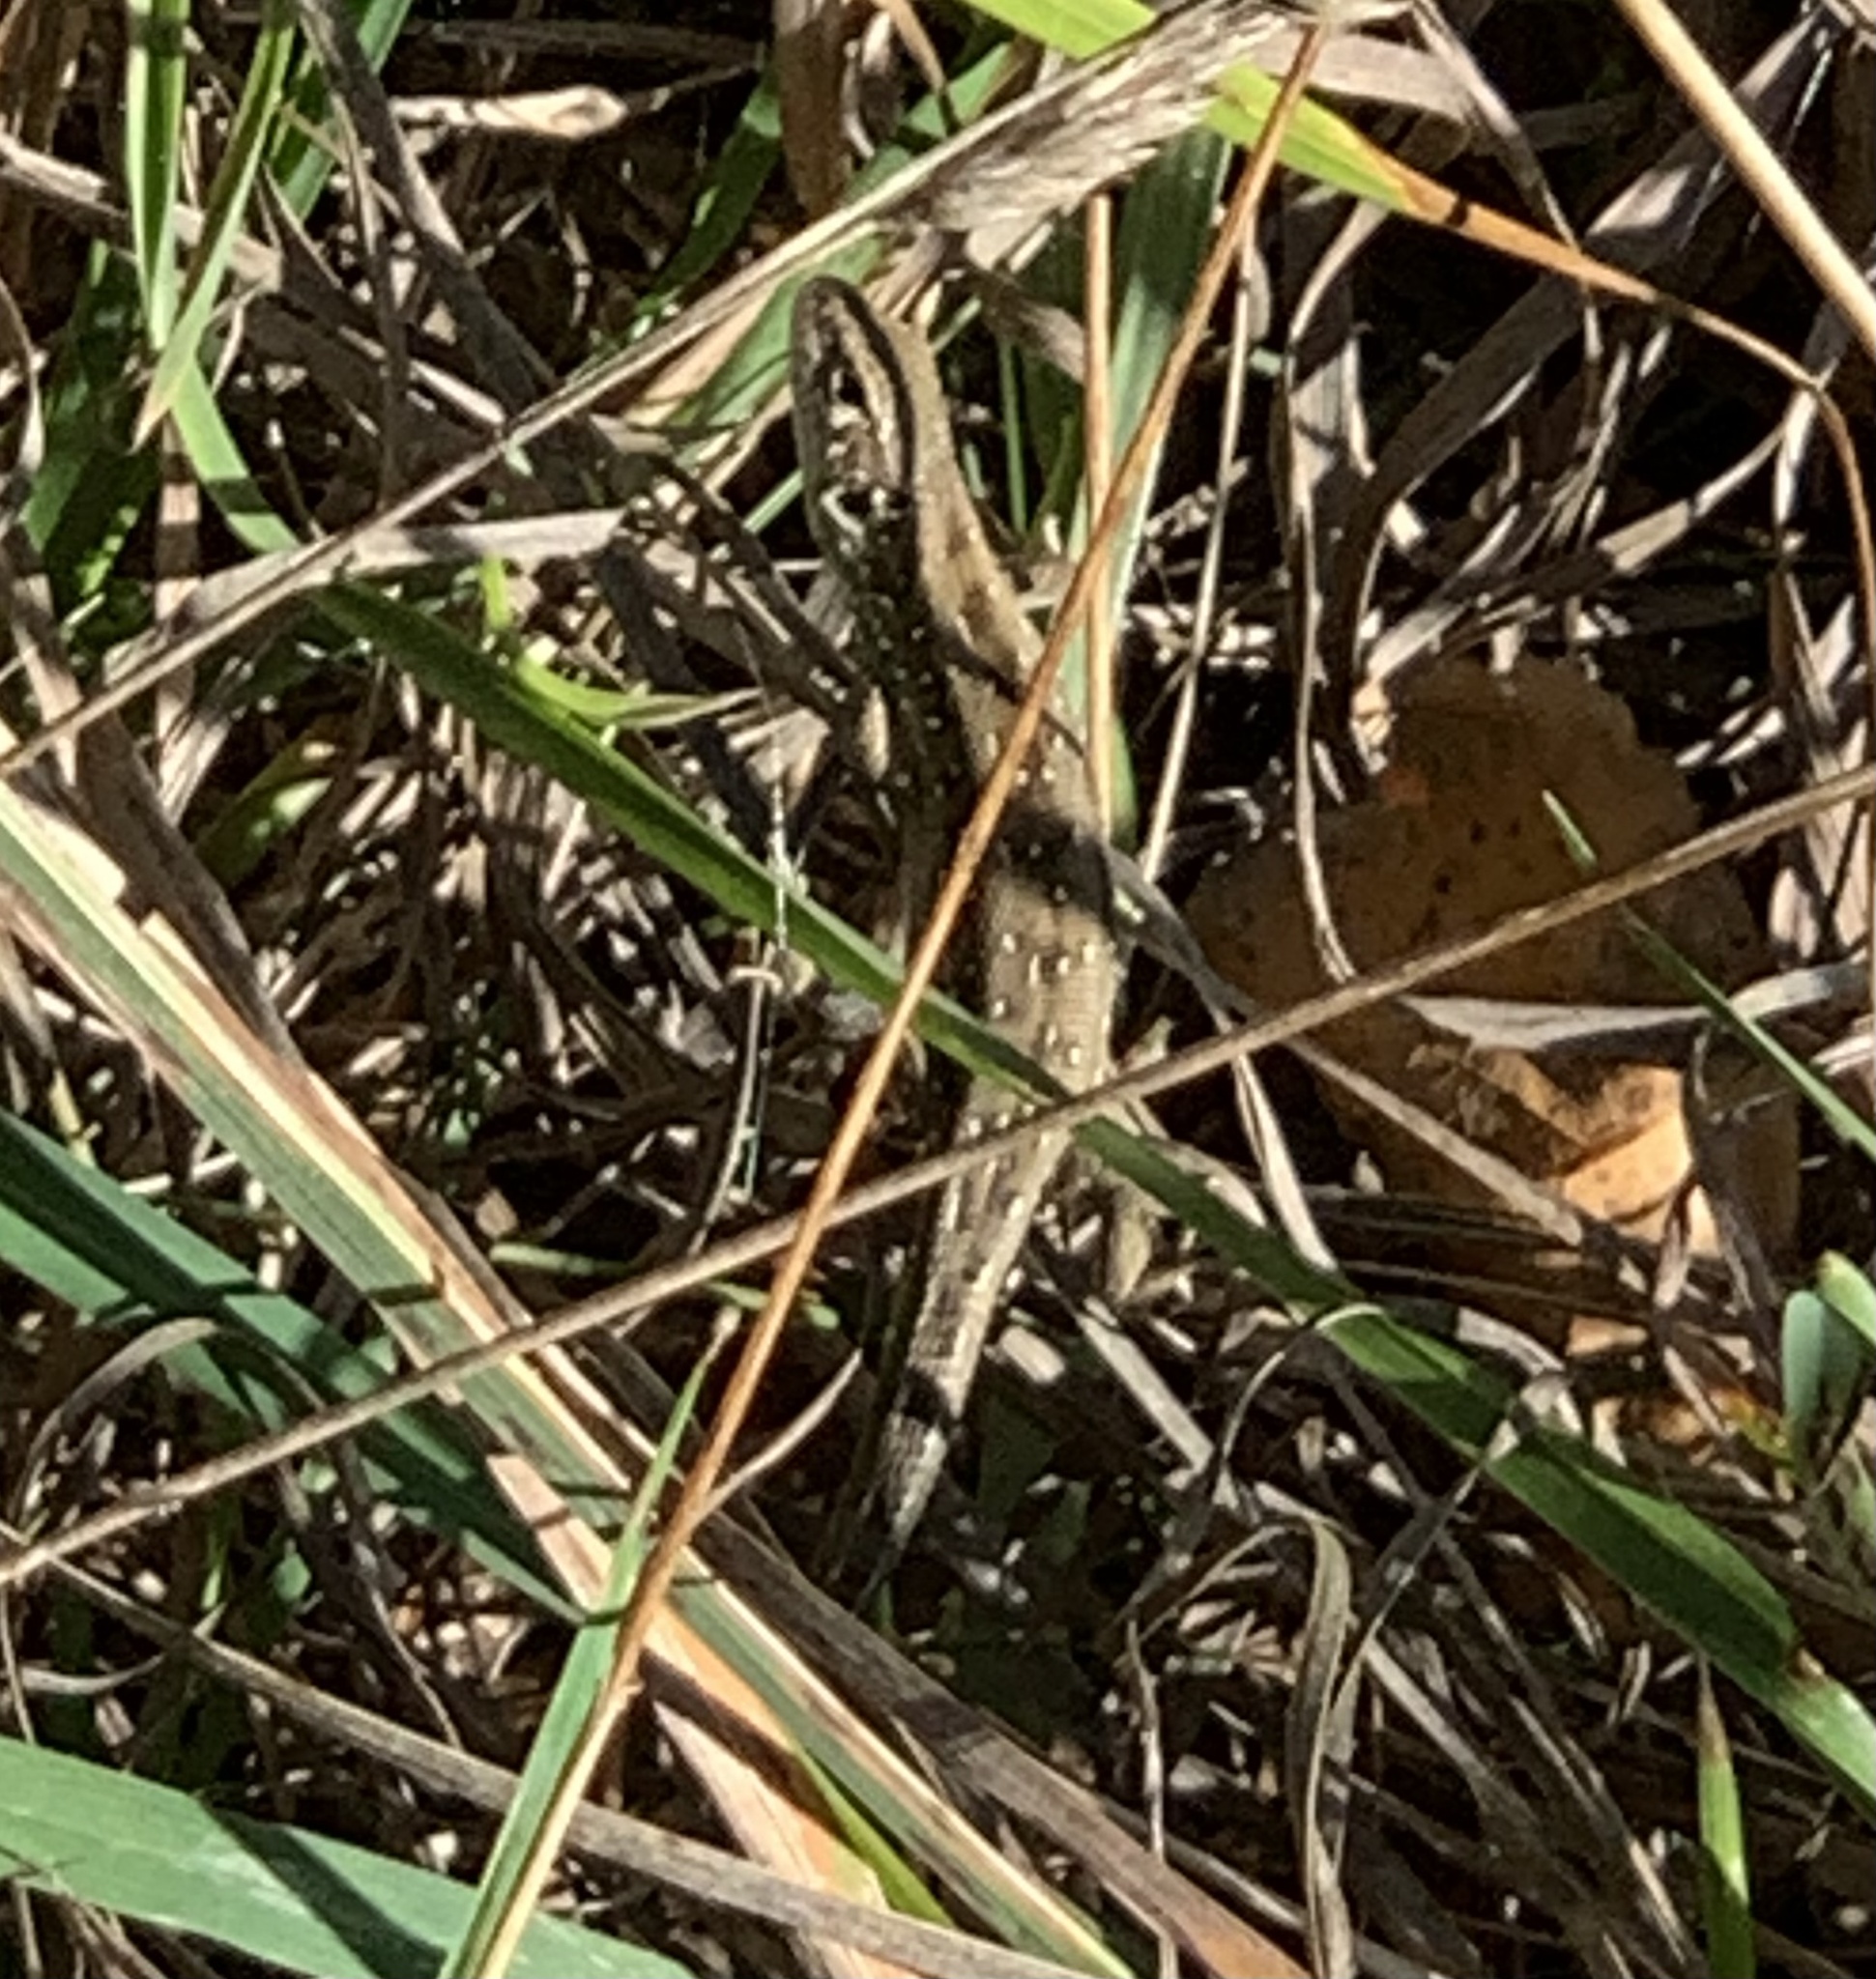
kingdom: Animalia
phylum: Chordata
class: Squamata
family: Lacertidae
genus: Lacerta
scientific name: Lacerta agilis
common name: Sand lizard
